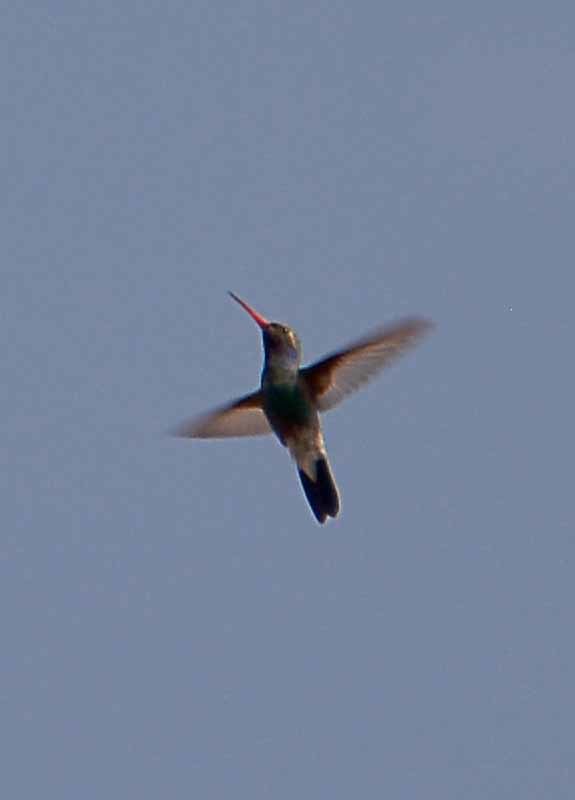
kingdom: Animalia
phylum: Chordata
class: Aves
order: Apodiformes
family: Trochilidae
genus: Cynanthus
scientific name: Cynanthus latirostris
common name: Broad-billed hummingbird
